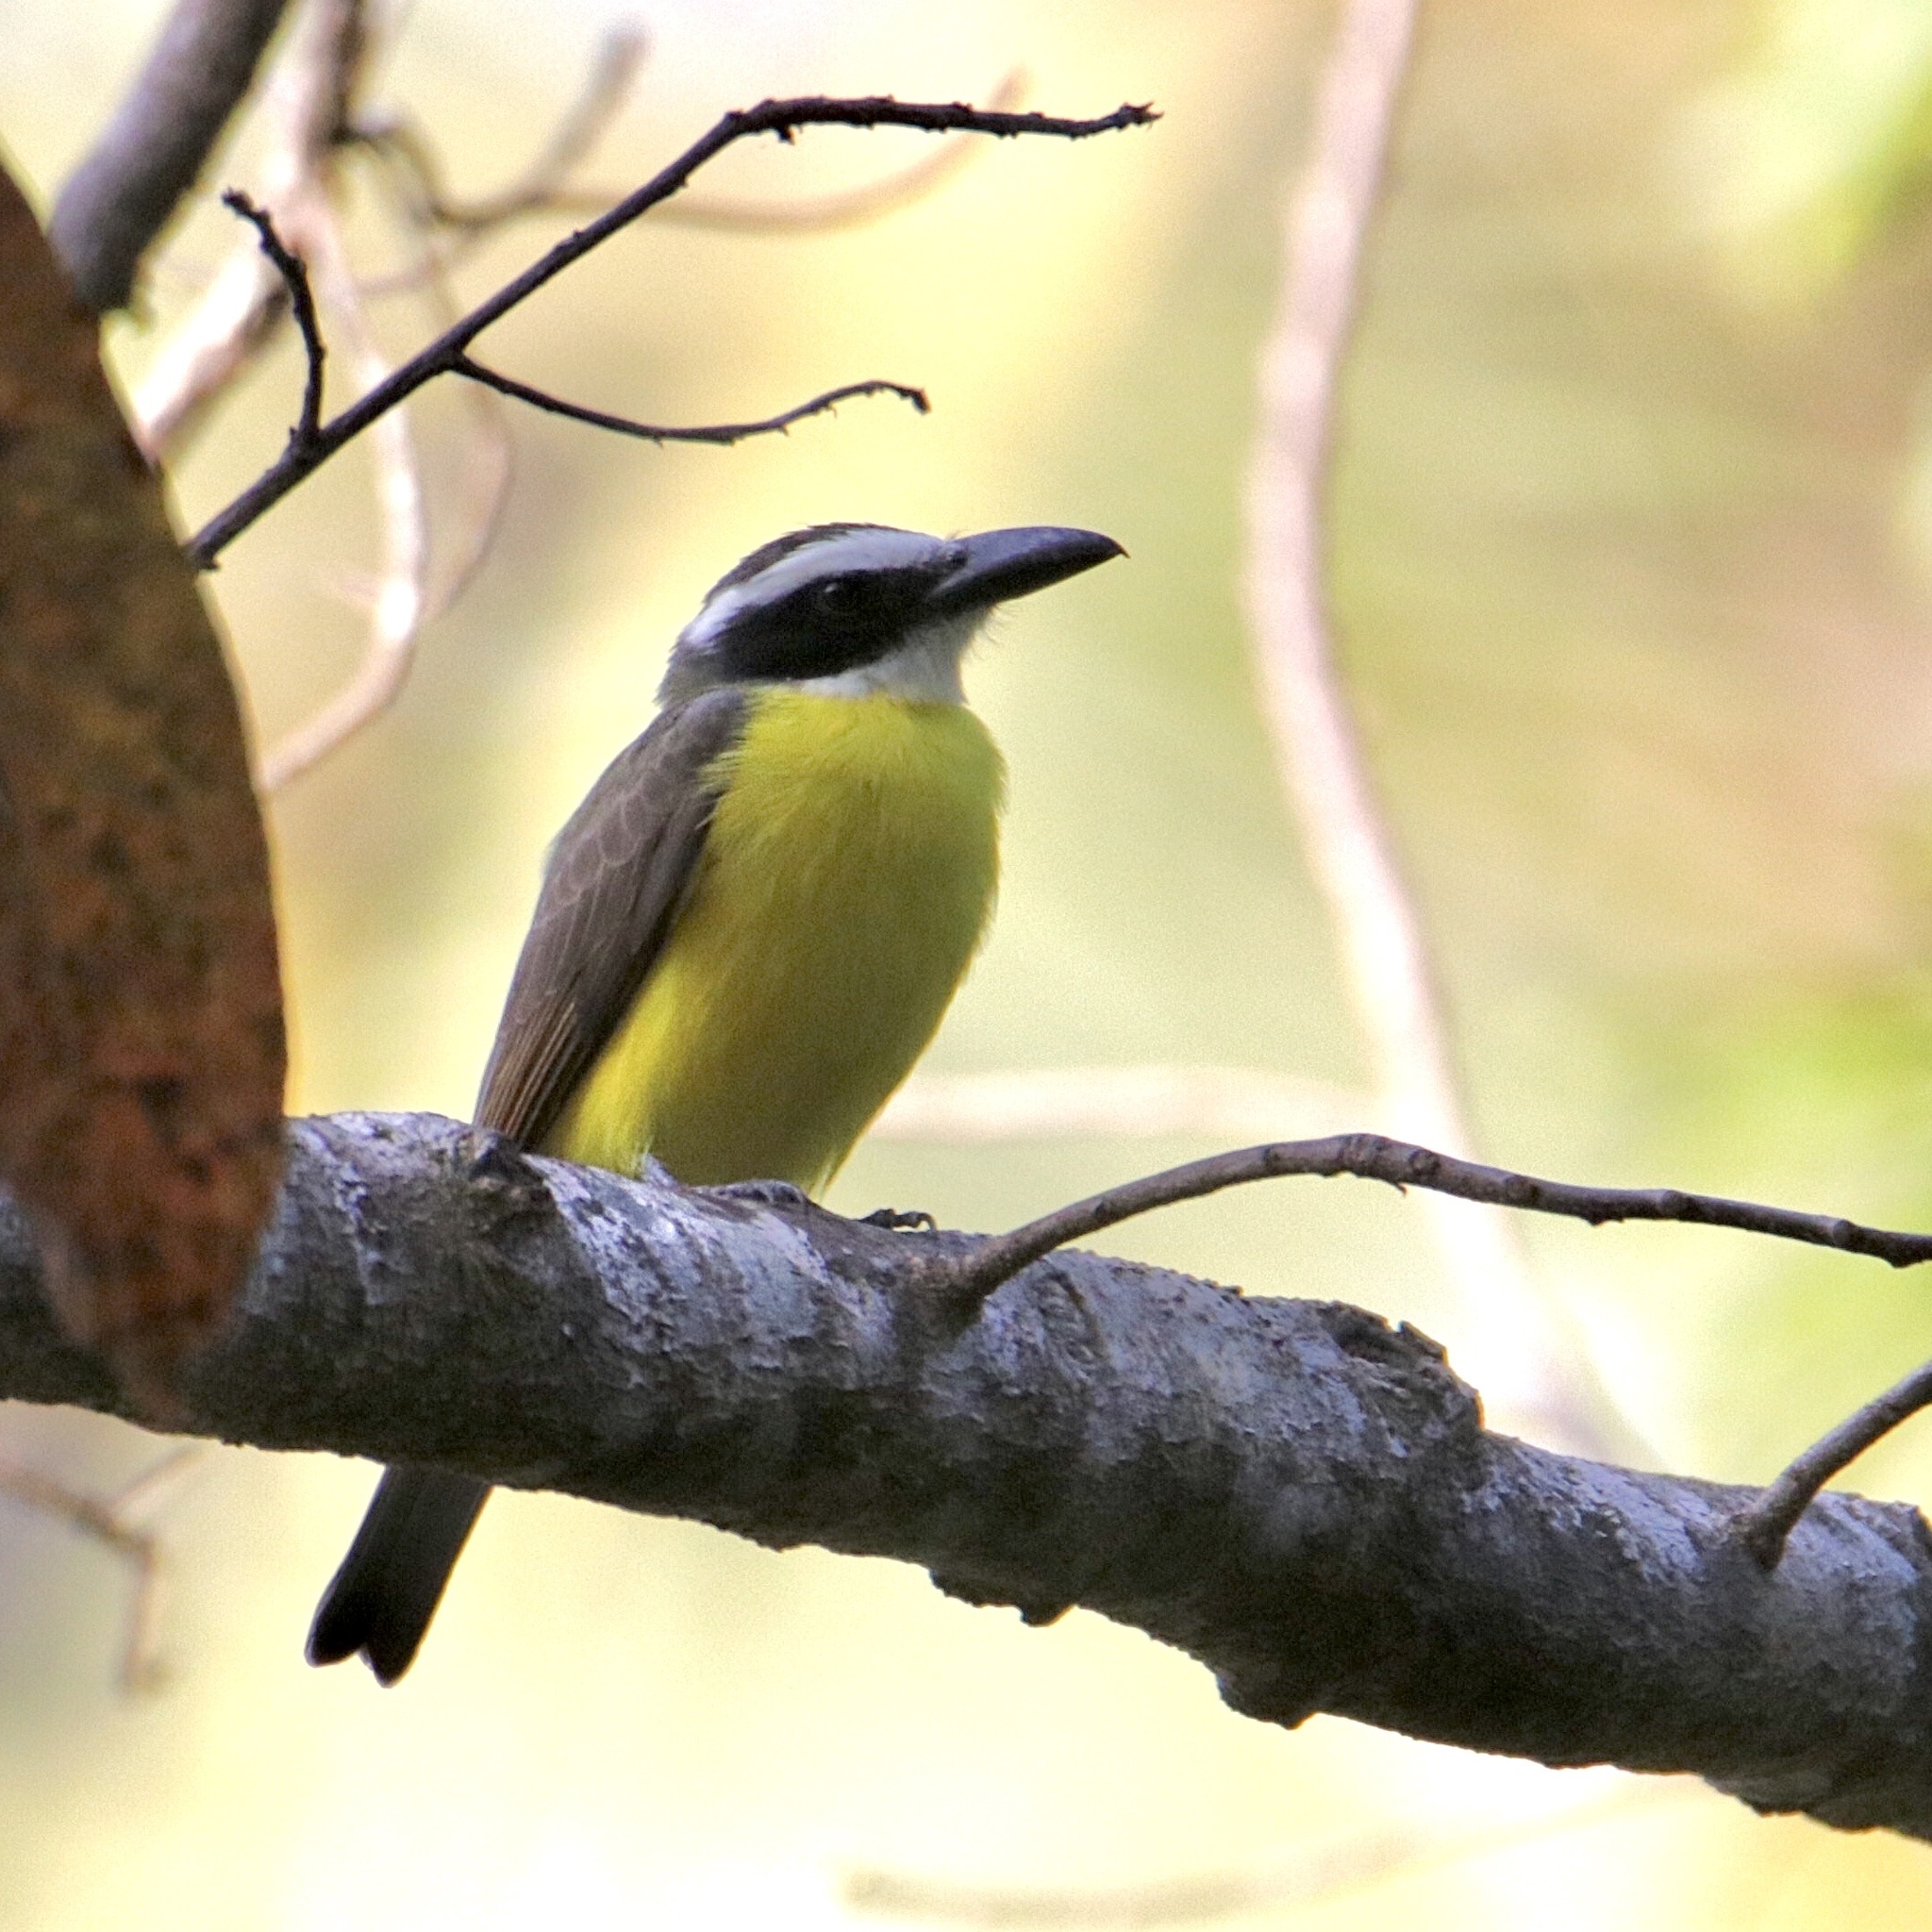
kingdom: Animalia
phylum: Chordata
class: Aves
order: Passeriformes
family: Tyrannidae
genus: Megarynchus
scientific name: Megarynchus pitangua
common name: Boat-billed flycatcher
